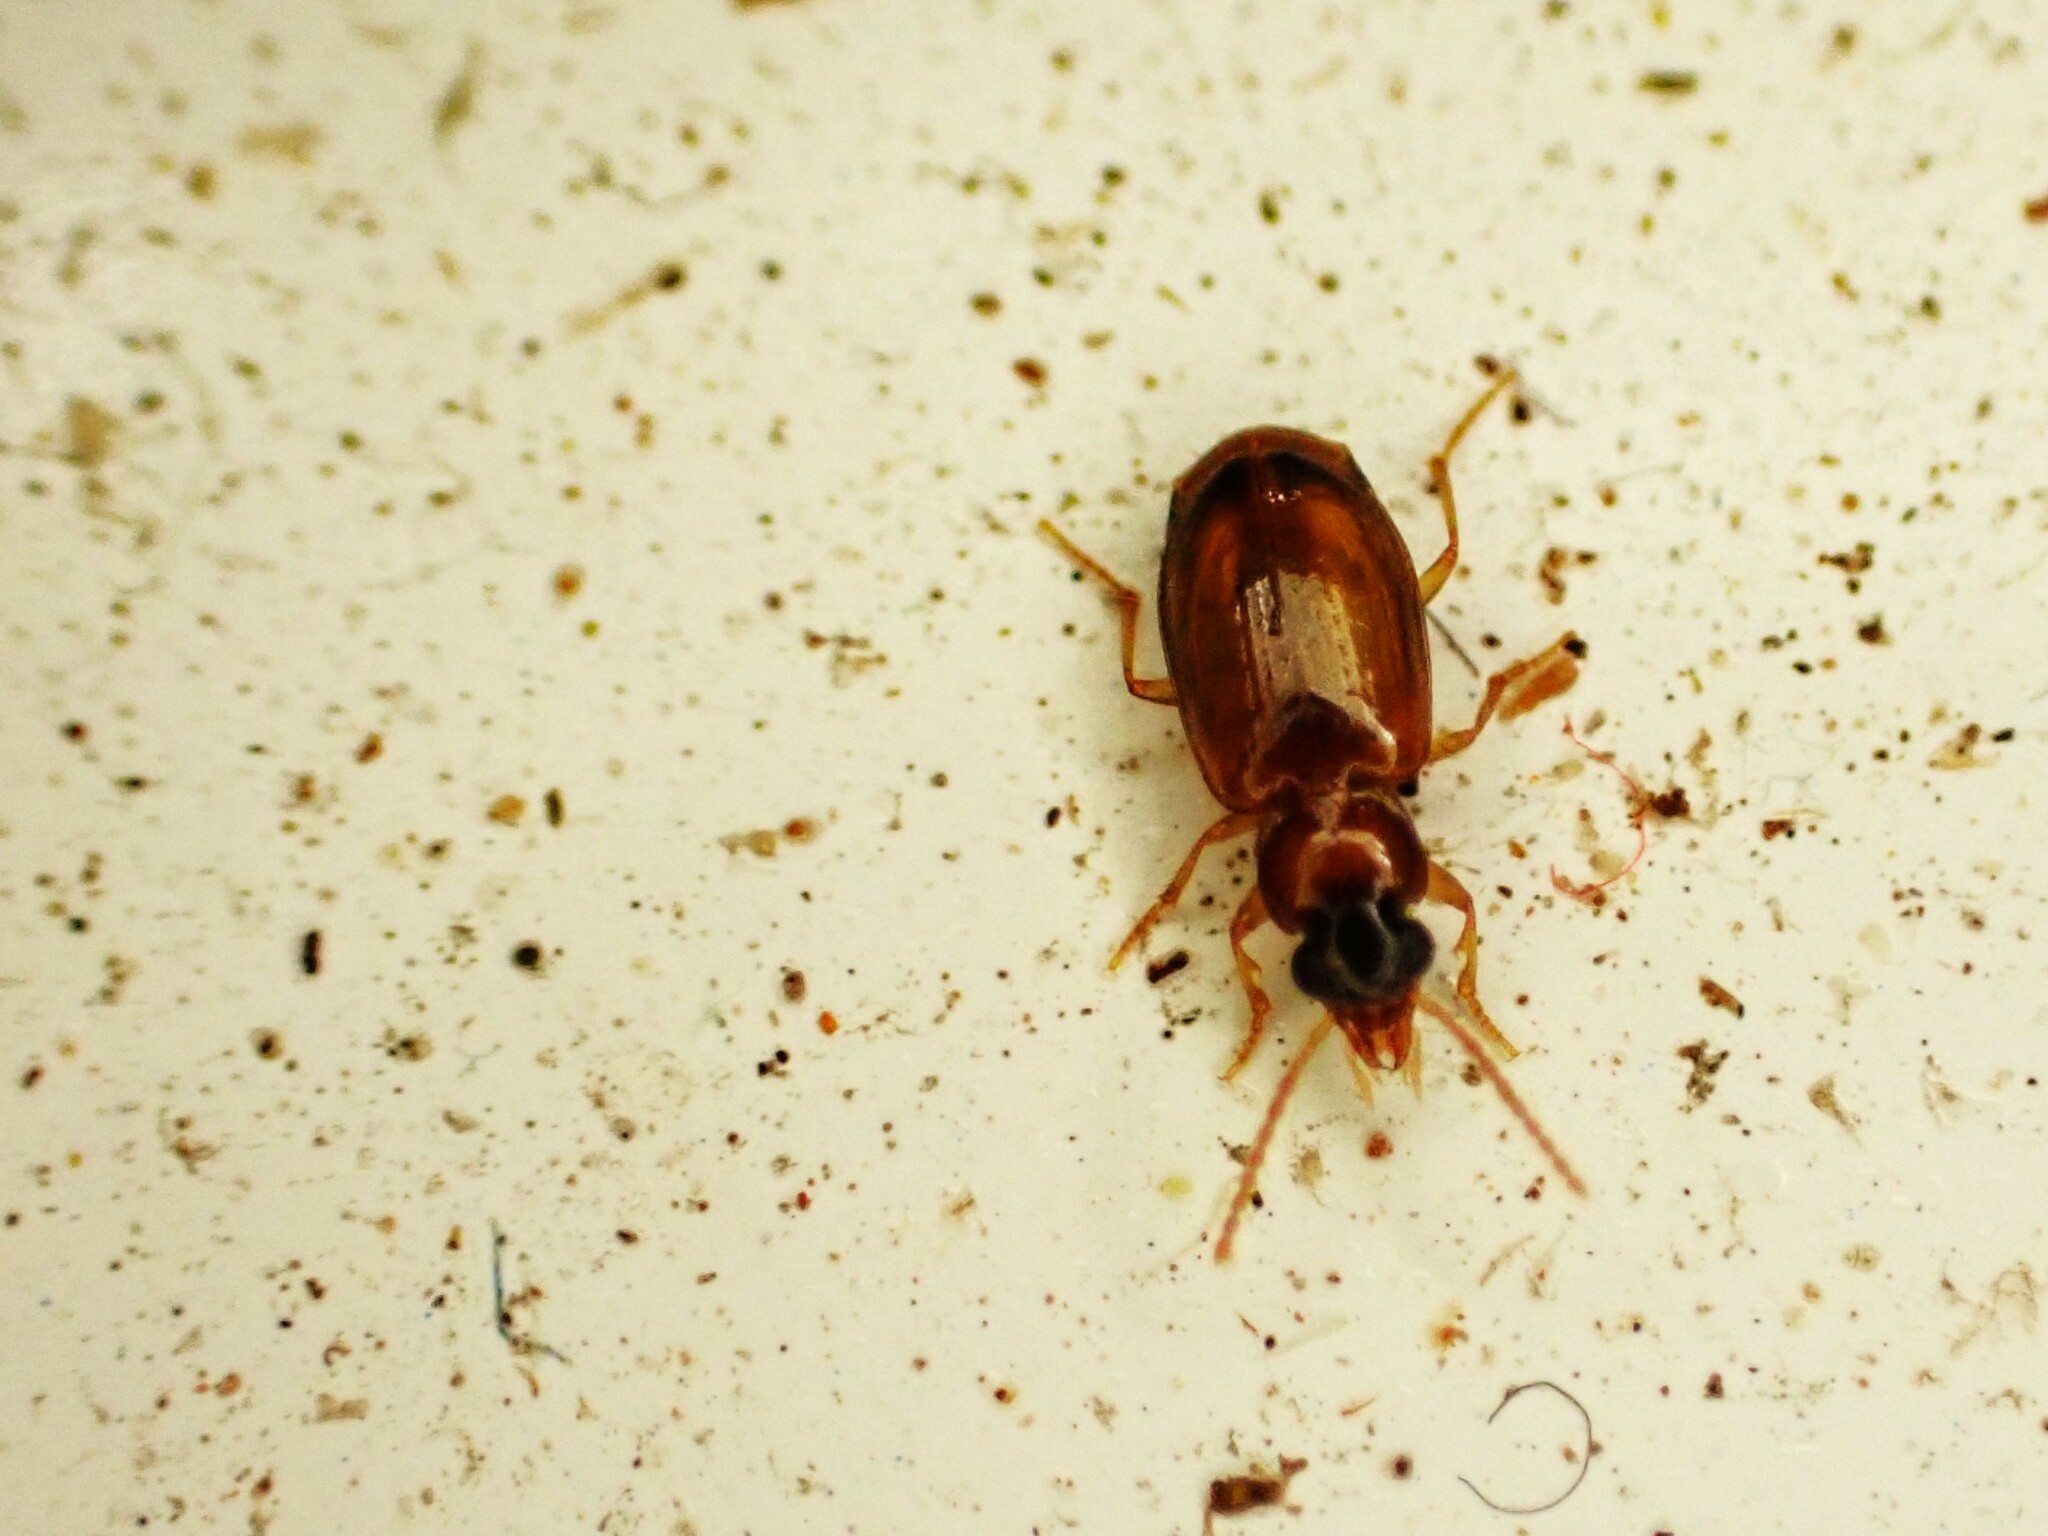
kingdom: Animalia
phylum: Arthropoda
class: Insecta
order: Coleoptera
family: Carabidae
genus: Perigona
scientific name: Perigona nigriceps
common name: Tawny harp ground beetle
